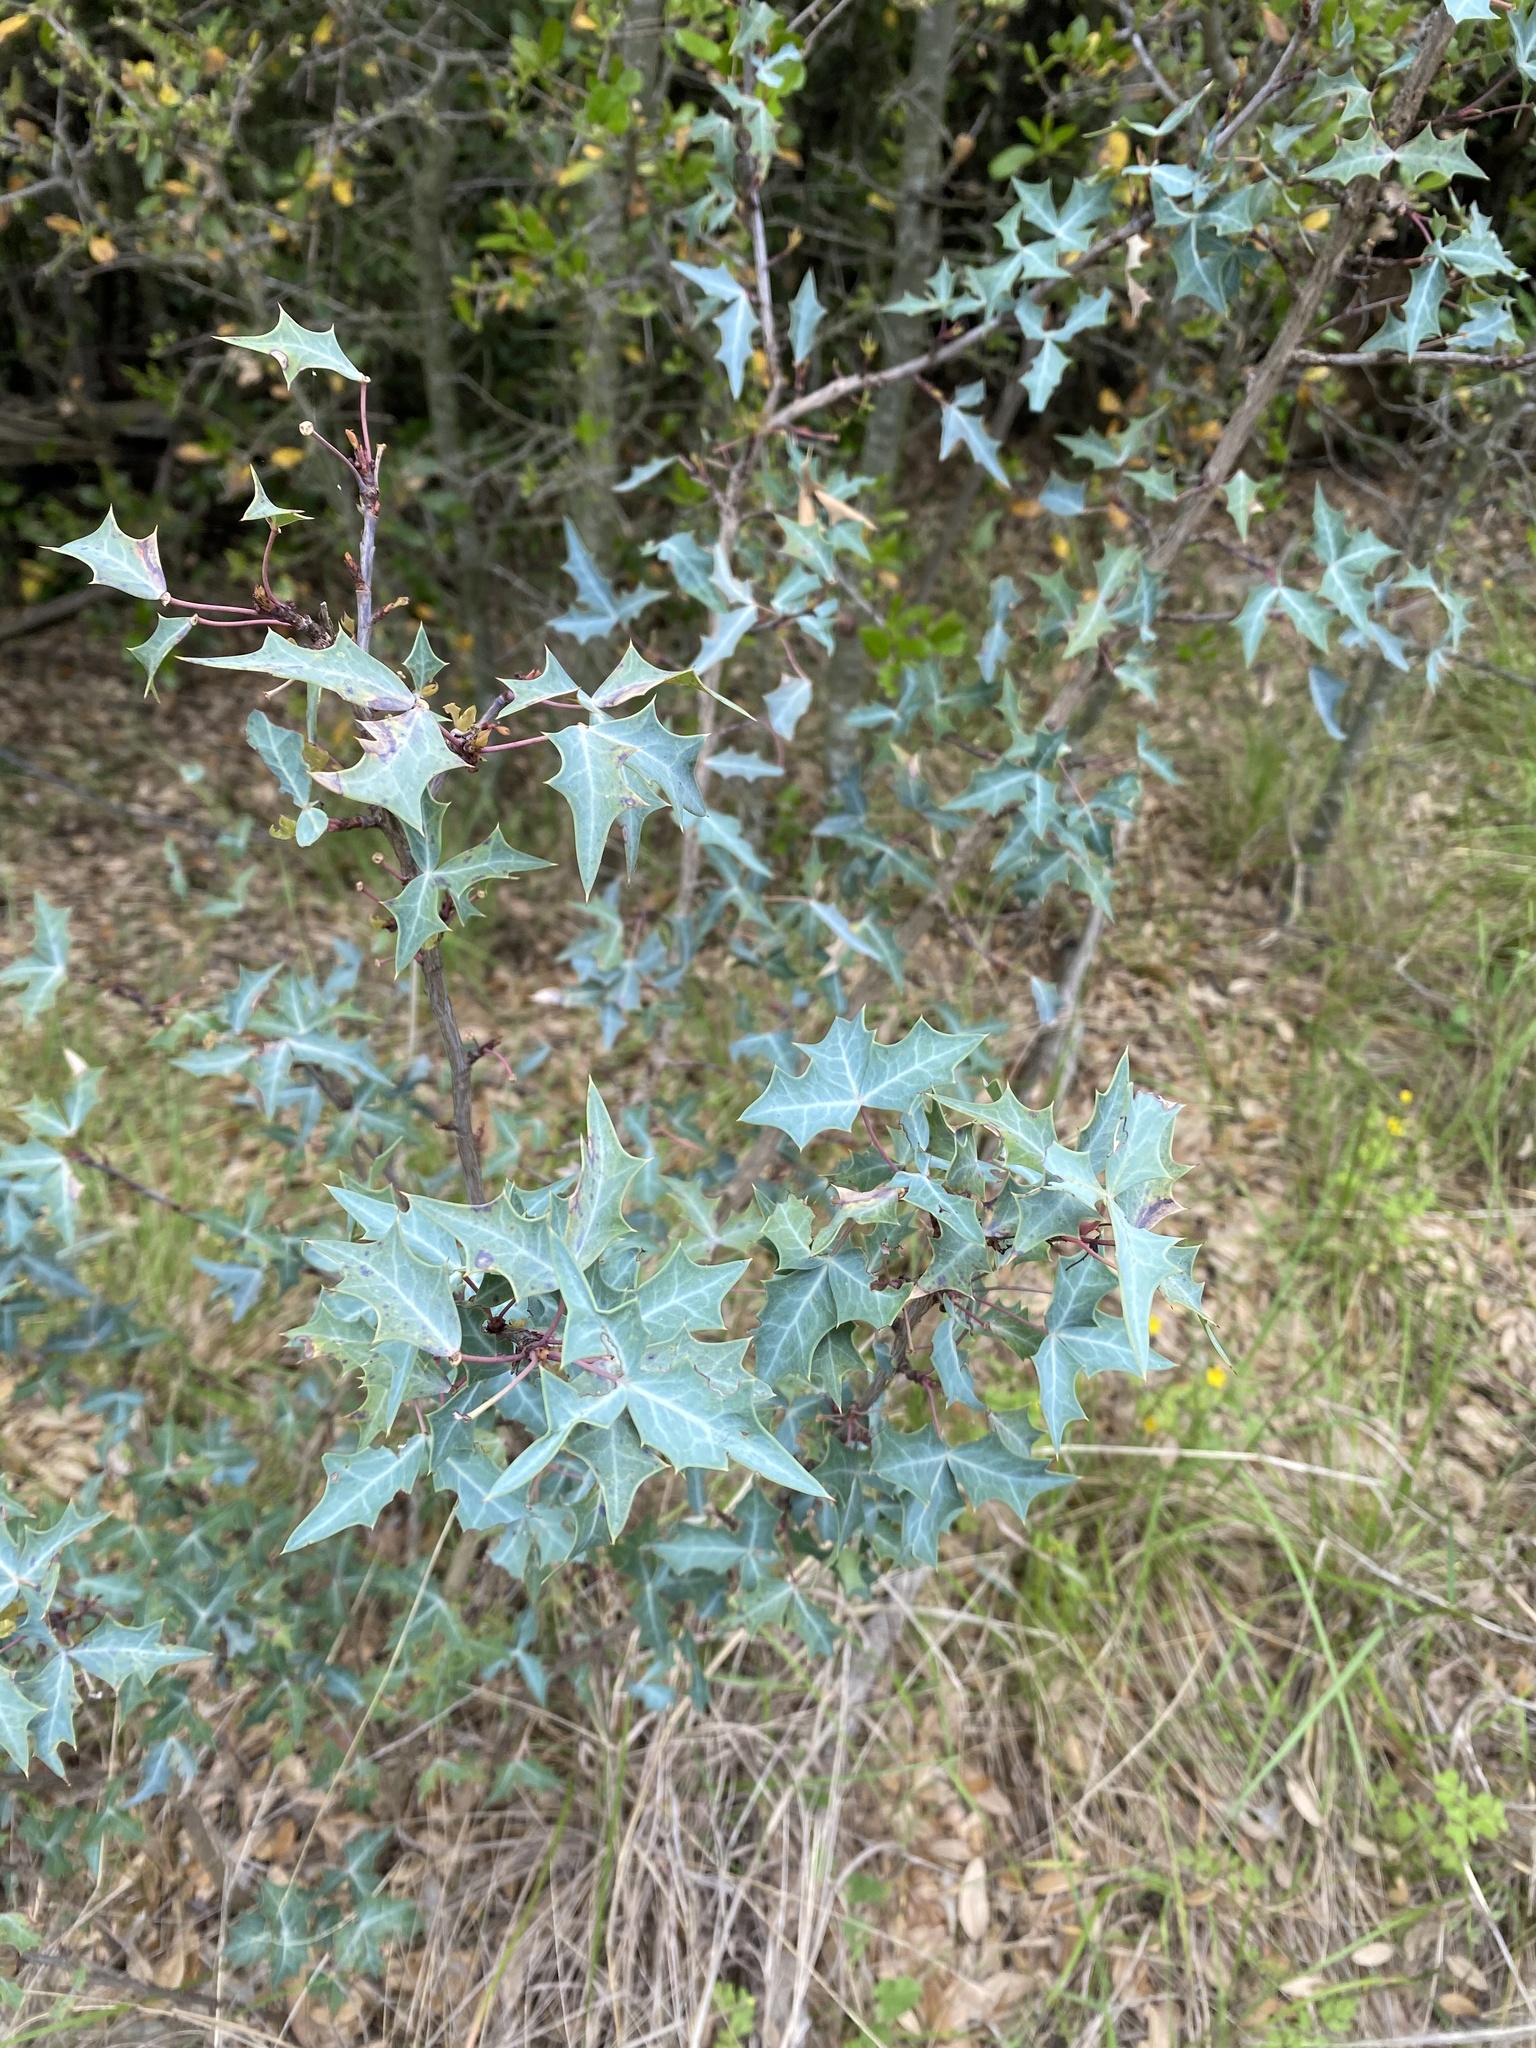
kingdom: Plantae
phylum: Tracheophyta
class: Magnoliopsida
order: Ranunculales
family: Berberidaceae
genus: Alloberberis
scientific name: Alloberberis trifoliolata
